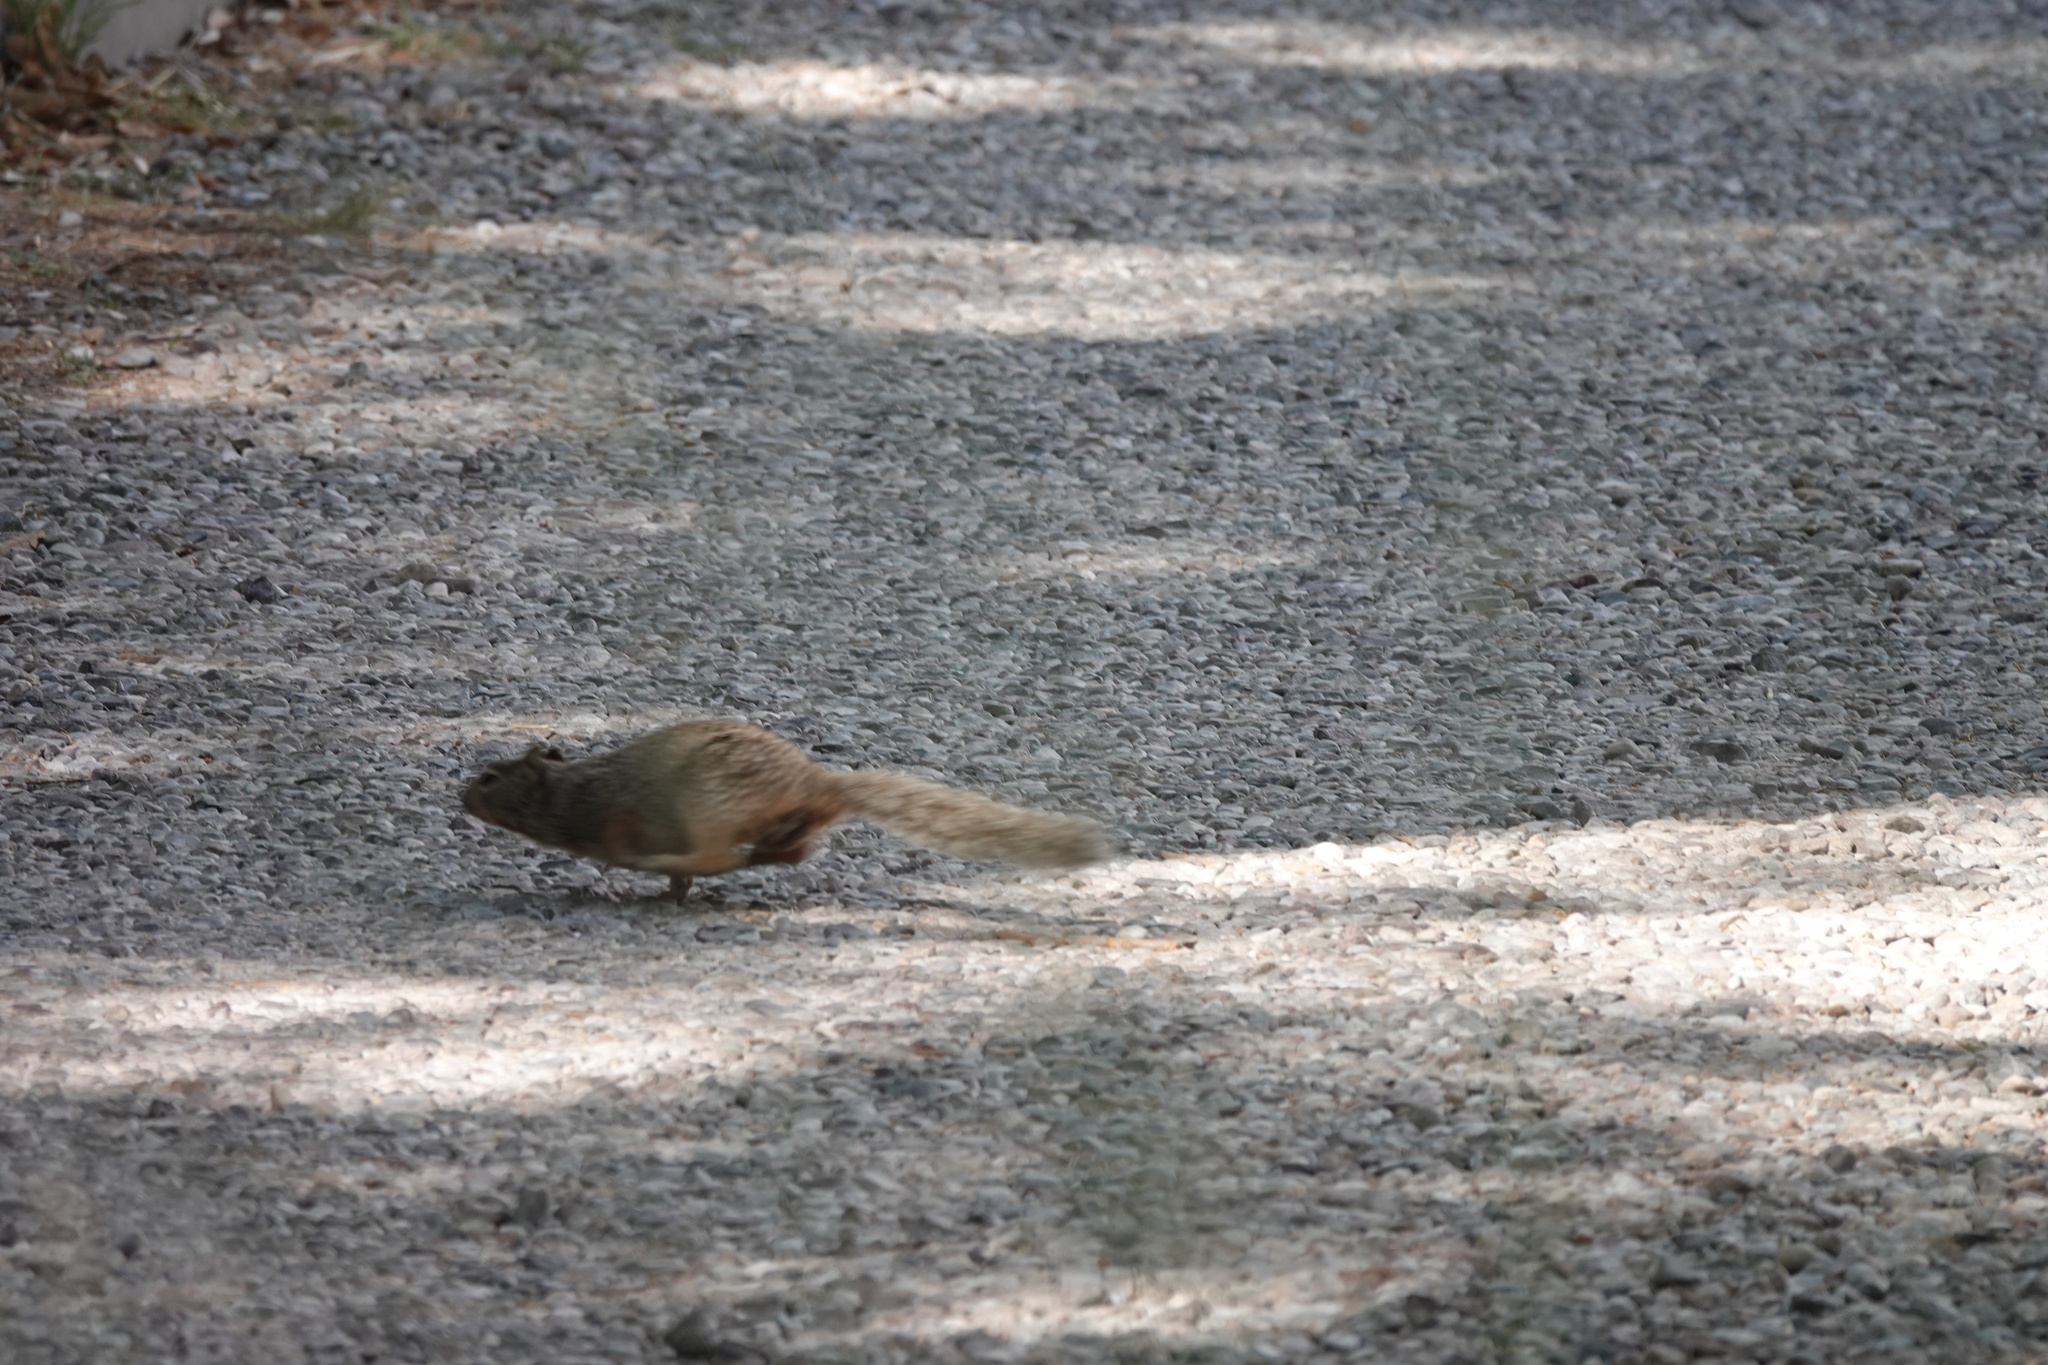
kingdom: Animalia
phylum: Chordata
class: Mammalia
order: Rodentia
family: Sciuridae
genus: Otospermophilus
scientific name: Otospermophilus variegatus
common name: Rock squirrel
